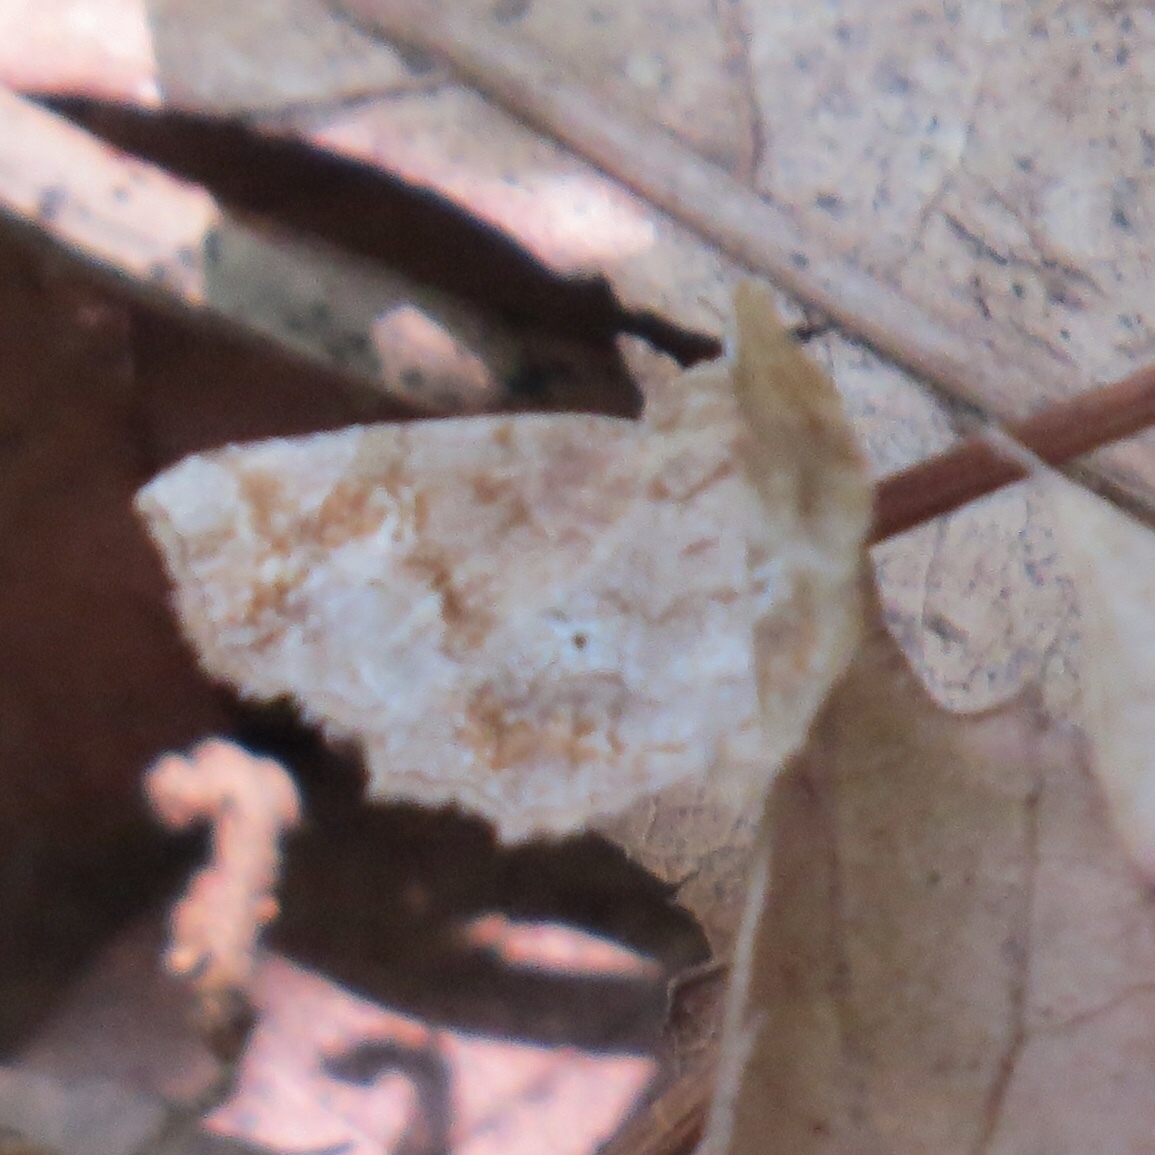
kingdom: Animalia
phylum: Arthropoda
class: Insecta
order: Lepidoptera
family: Erebidae
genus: Pangrapta
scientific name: Pangrapta decoralis
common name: Decorated owlet
